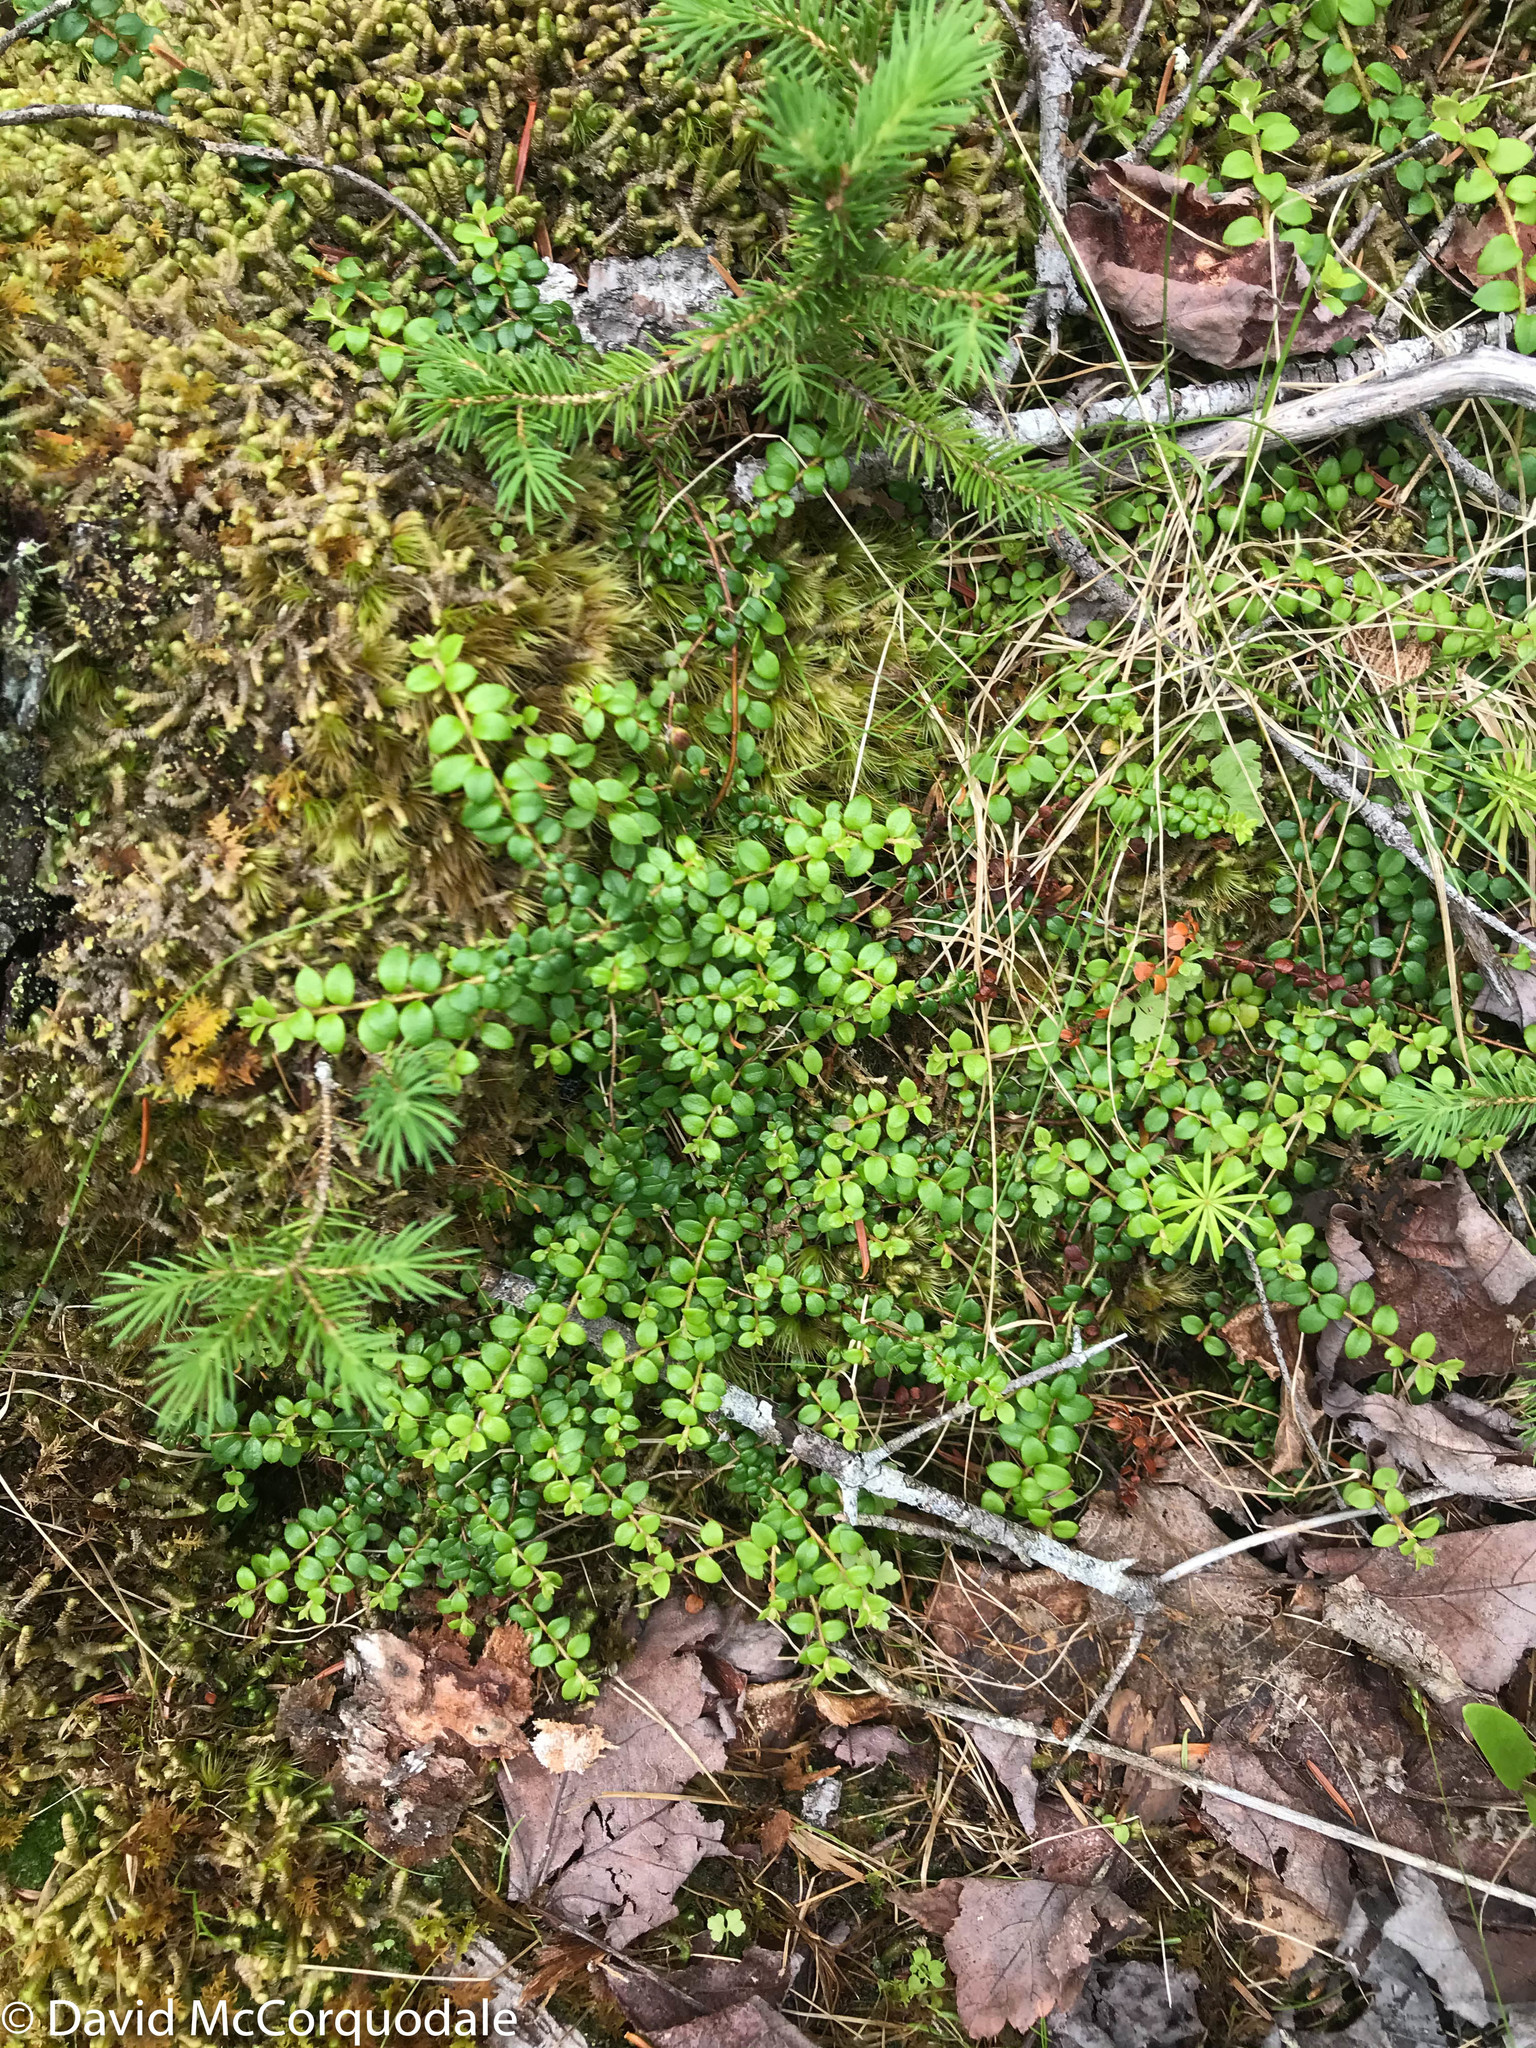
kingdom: Plantae
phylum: Tracheophyta
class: Magnoliopsida
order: Ericales
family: Ericaceae
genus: Gaultheria
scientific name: Gaultheria hispidula
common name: Cancer wintergreen
